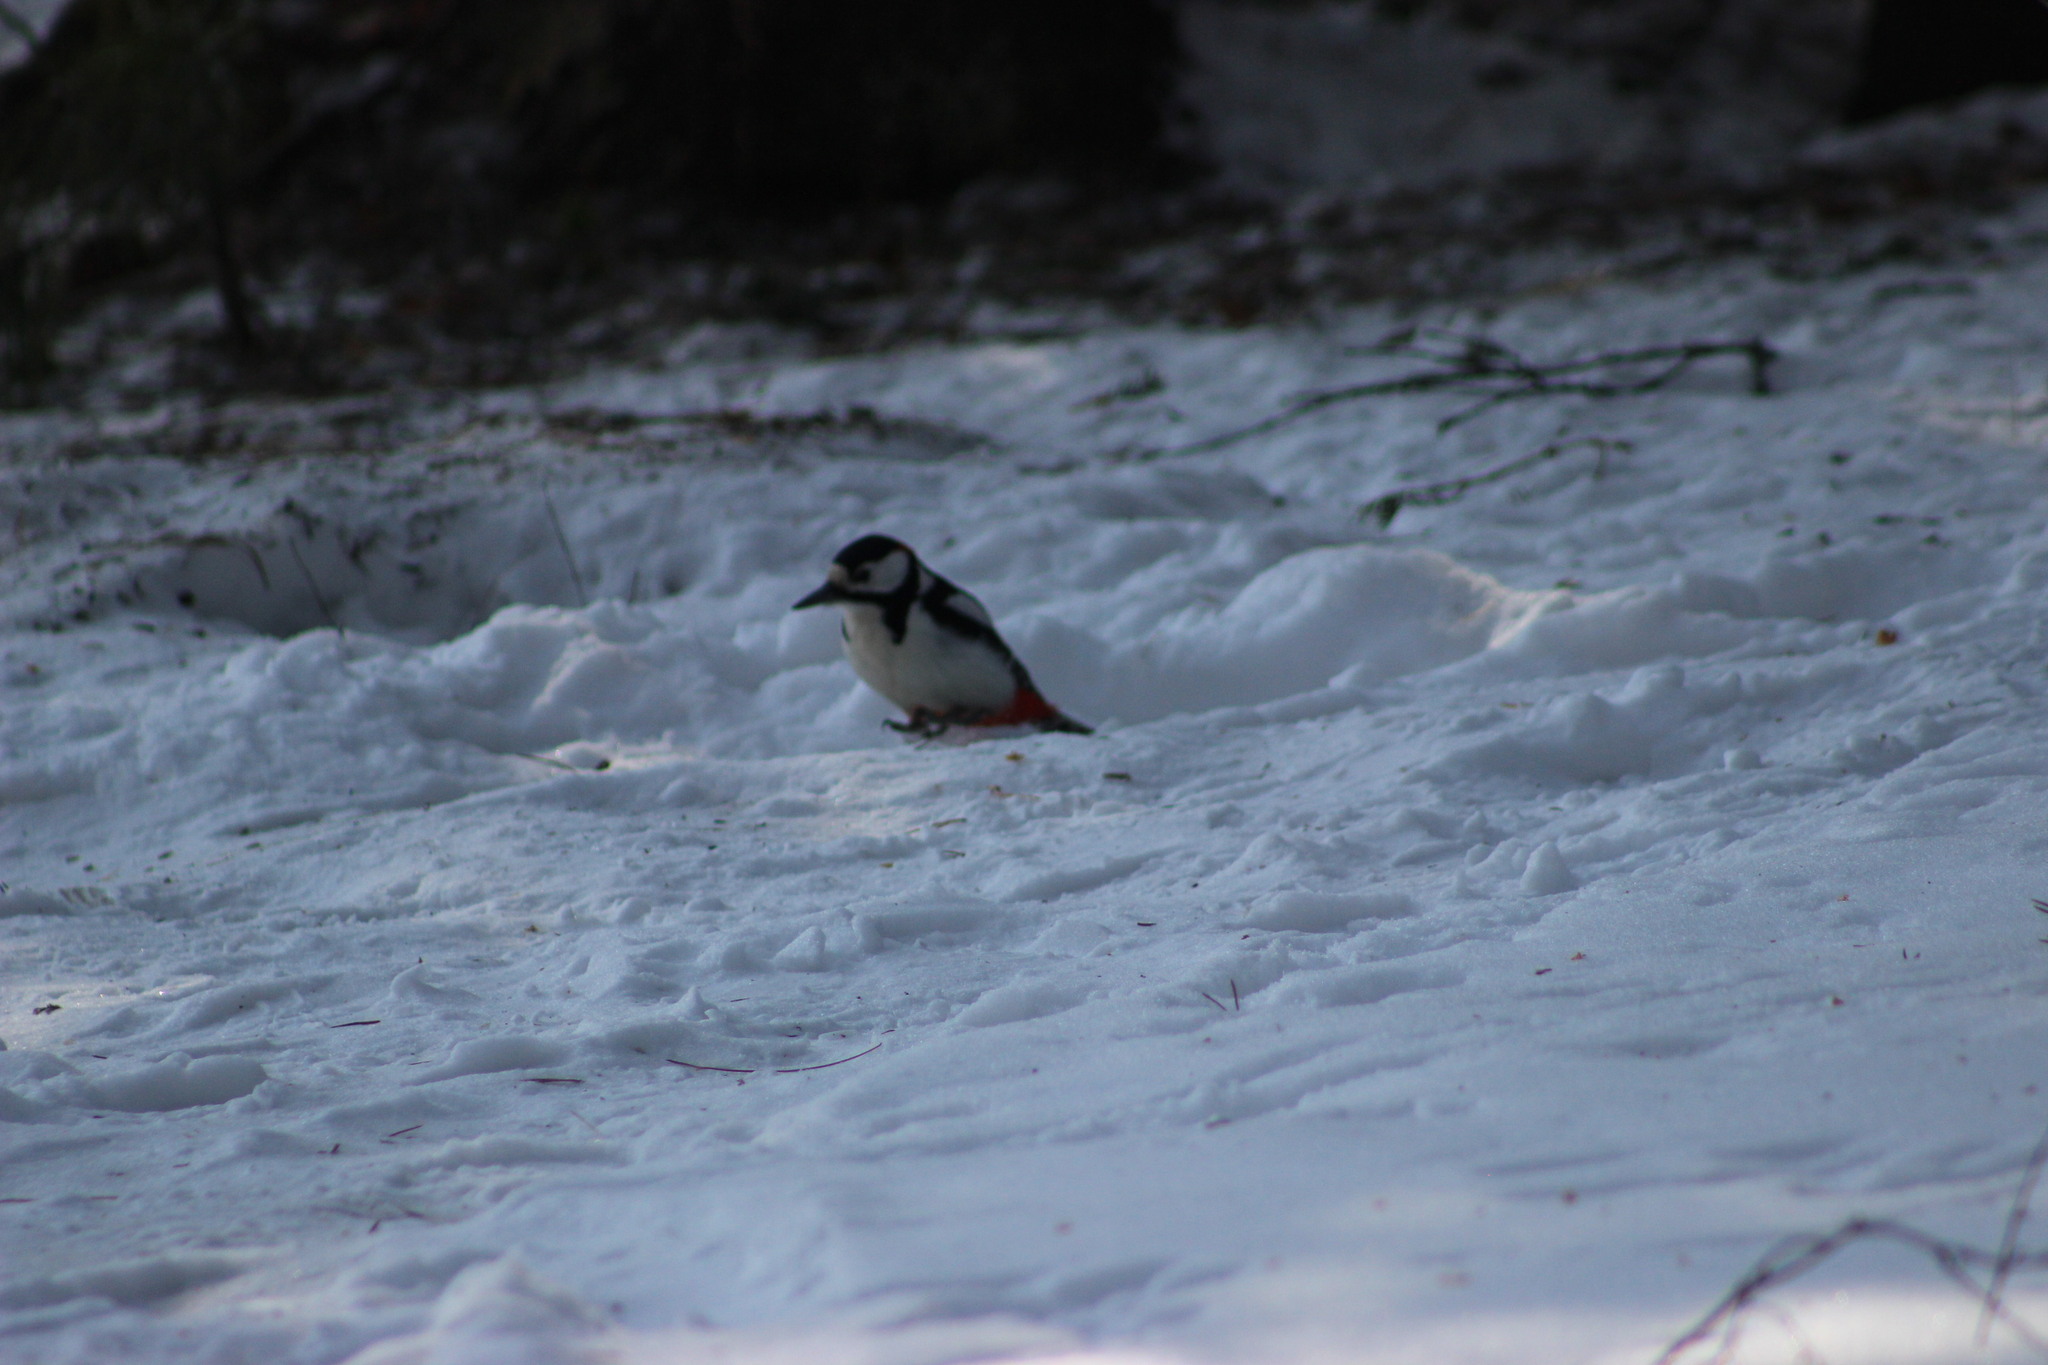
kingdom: Animalia
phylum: Chordata
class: Aves
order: Piciformes
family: Picidae
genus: Dendrocopos
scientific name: Dendrocopos major
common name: Great spotted woodpecker
